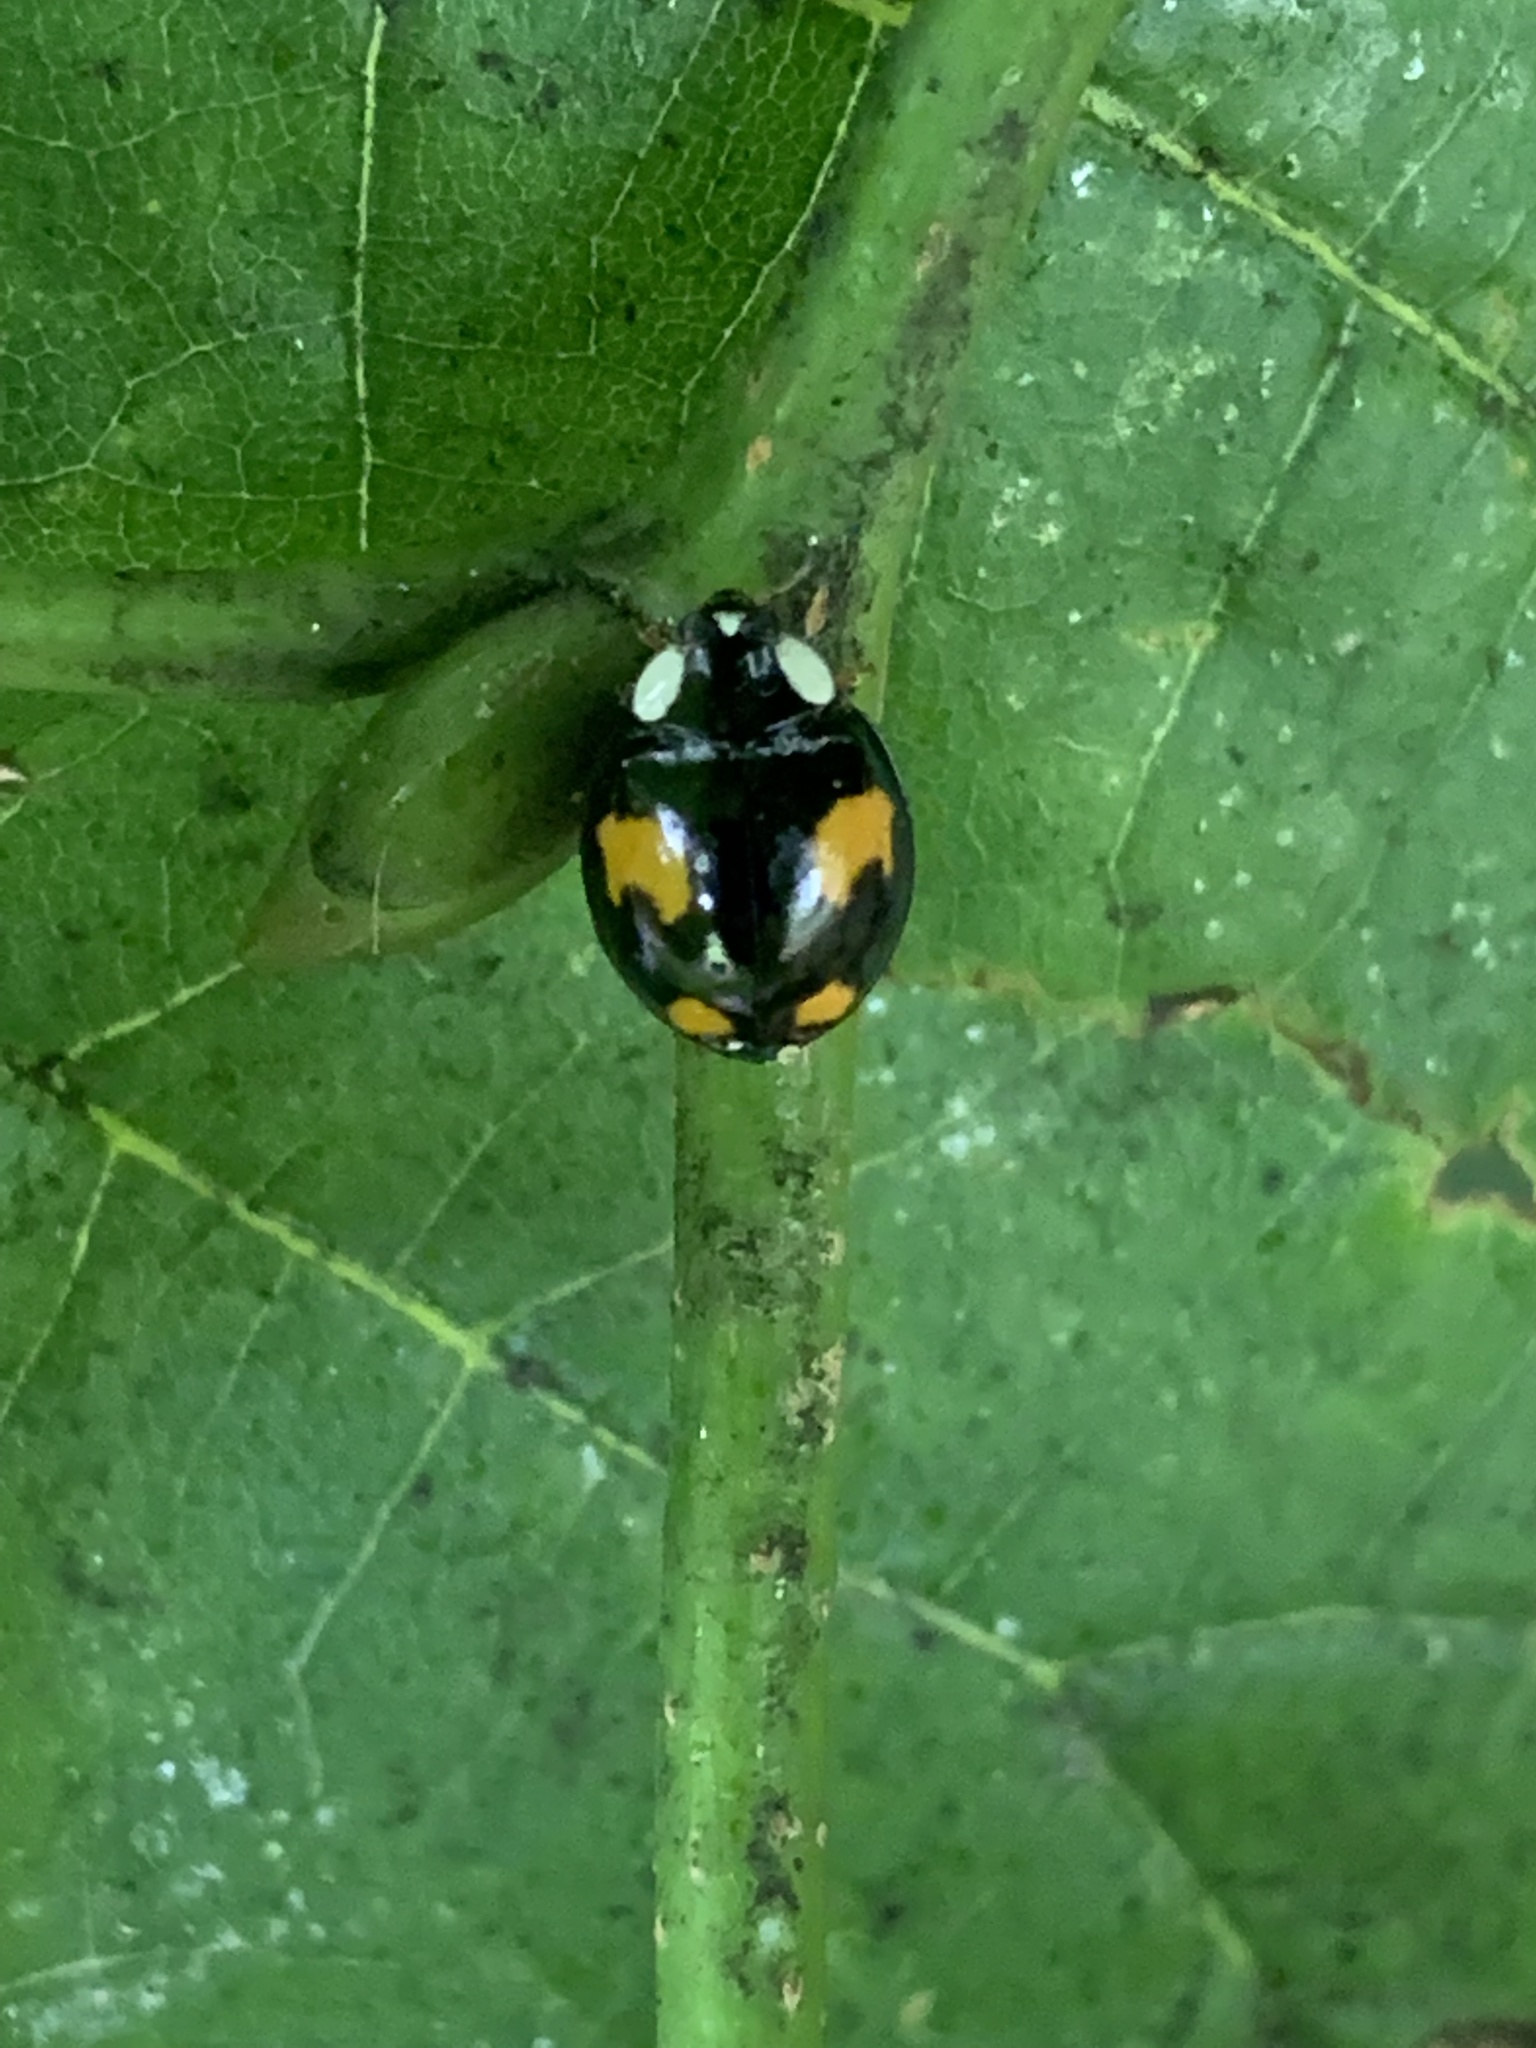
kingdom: Animalia
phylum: Arthropoda
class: Insecta
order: Coleoptera
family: Coccinellidae
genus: Harmonia
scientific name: Harmonia axyridis
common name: Harlequin ladybird
